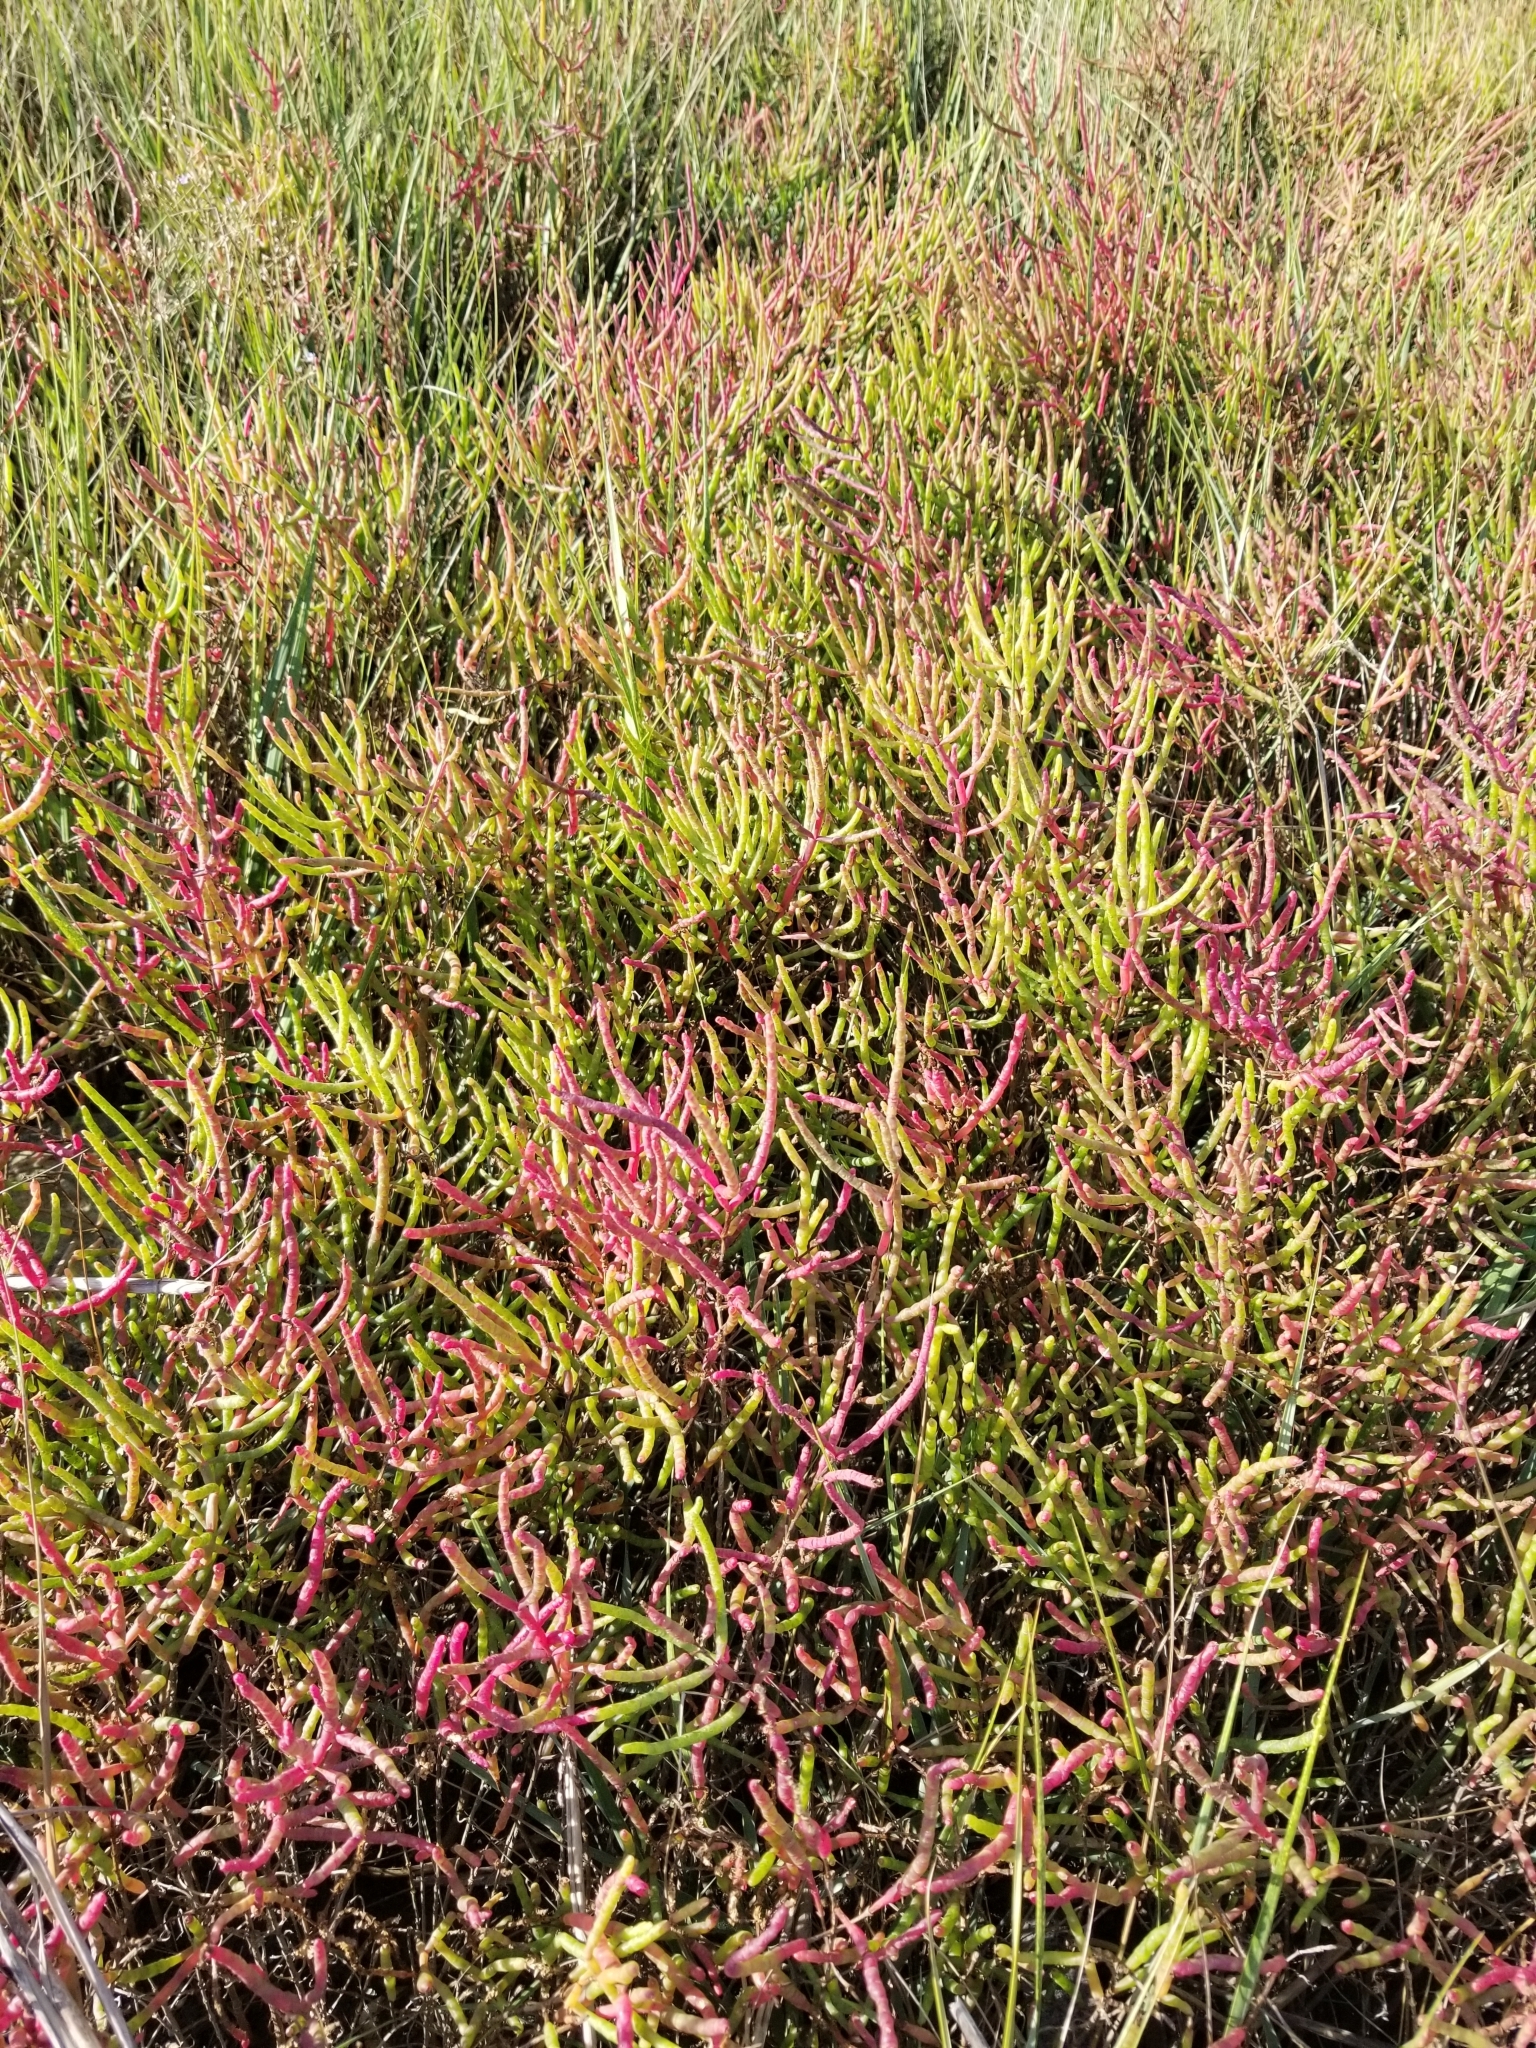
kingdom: Plantae
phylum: Tracheophyta
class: Magnoliopsida
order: Caryophyllales
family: Amaranthaceae
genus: Salicornia
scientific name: Salicornia virginica
